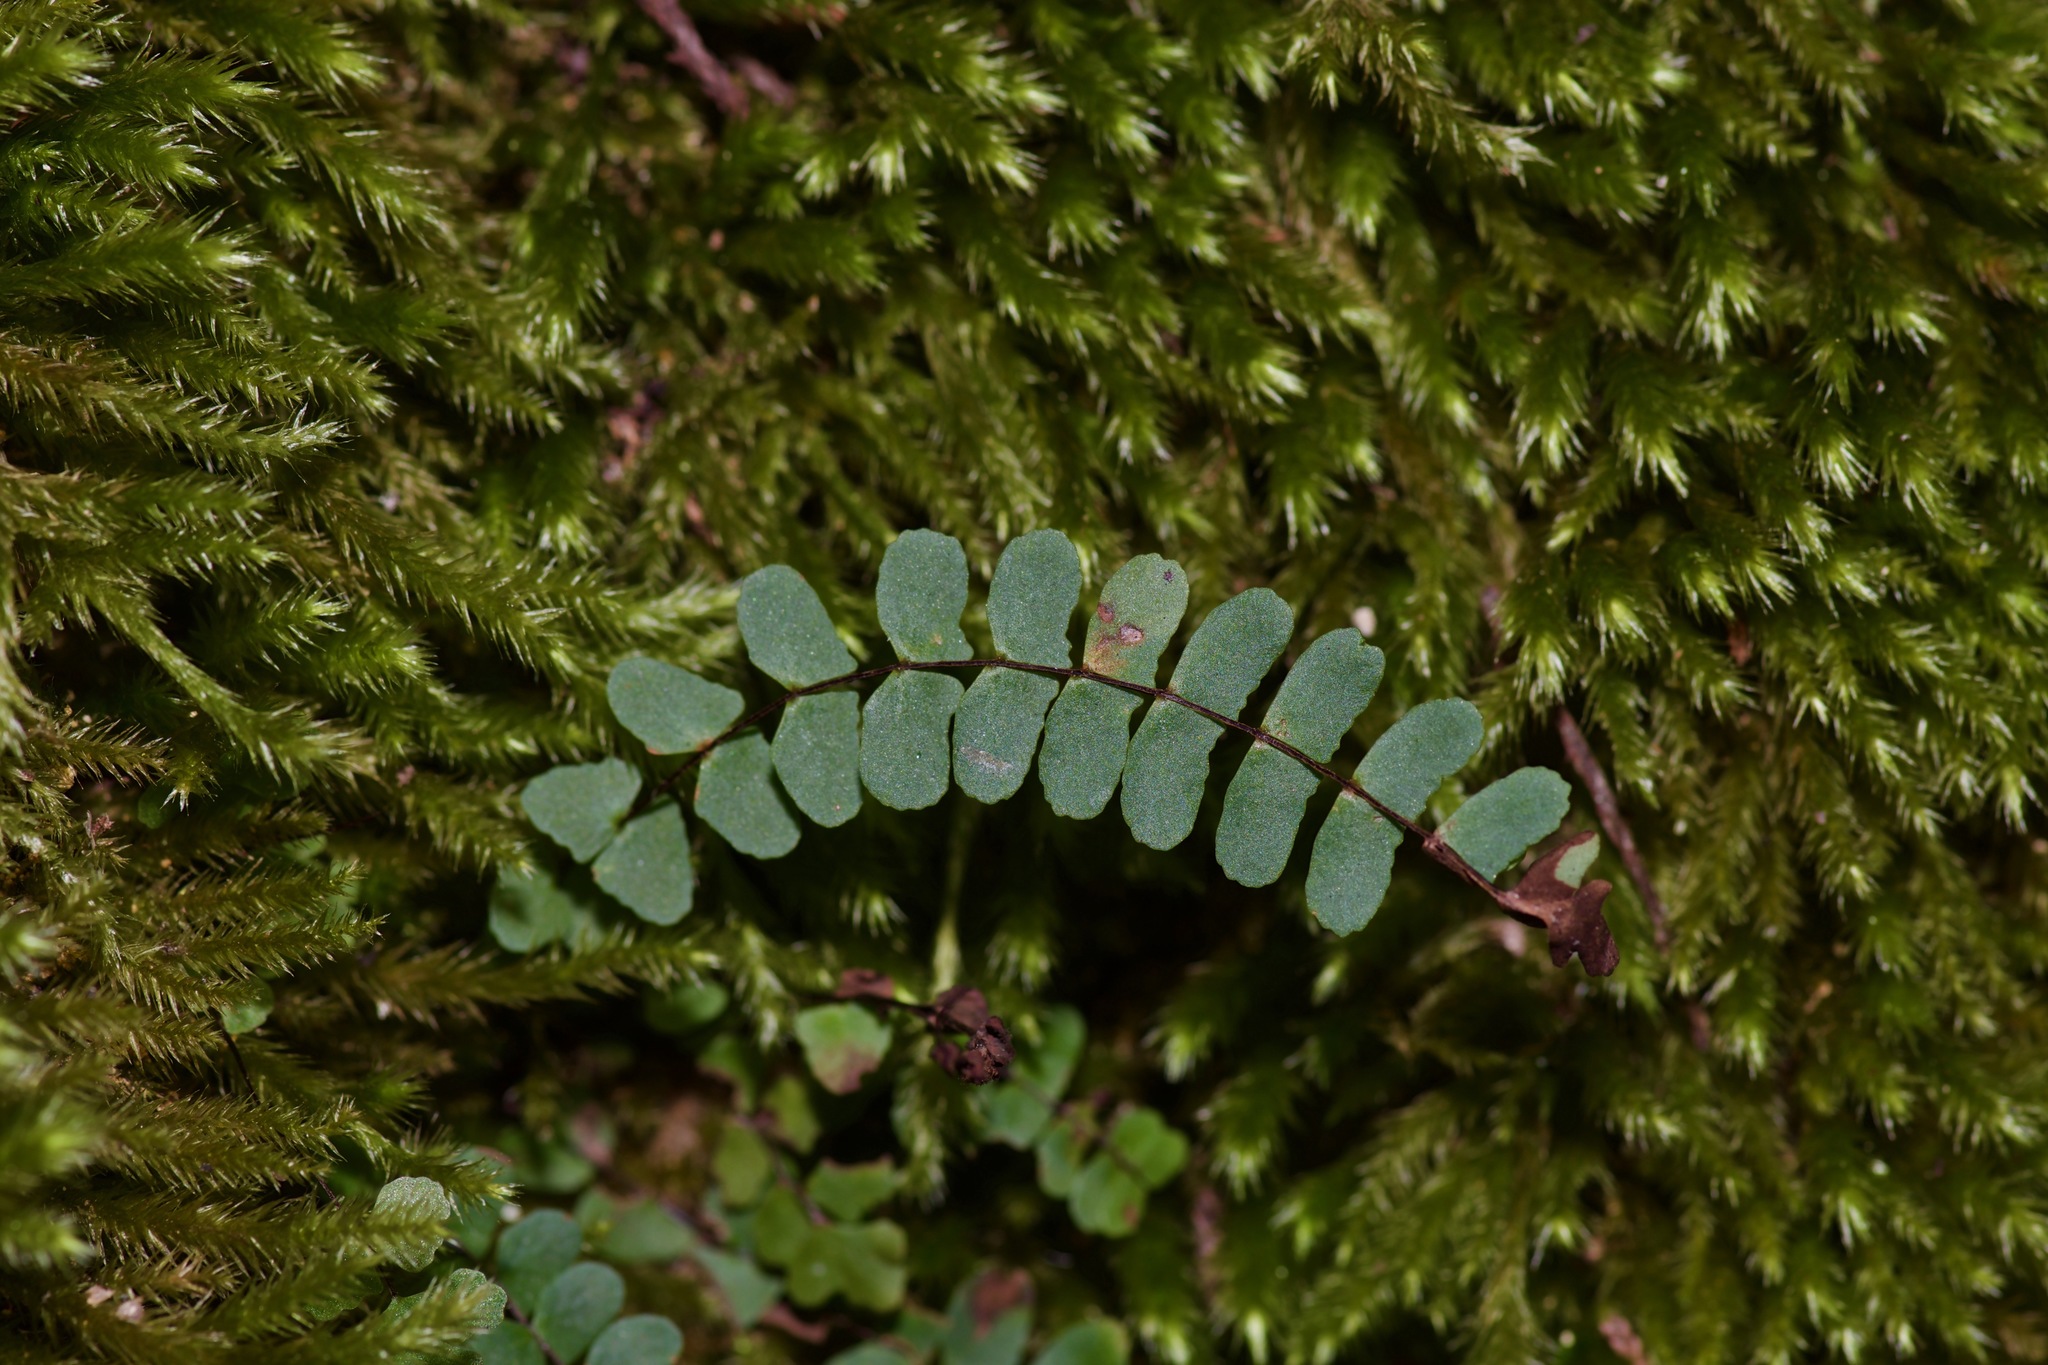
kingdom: Plantae
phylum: Tracheophyta
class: Polypodiopsida
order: Polypodiales
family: Aspleniaceae
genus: Asplenium
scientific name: Asplenium resiliens
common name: Blackstem spleenwort
